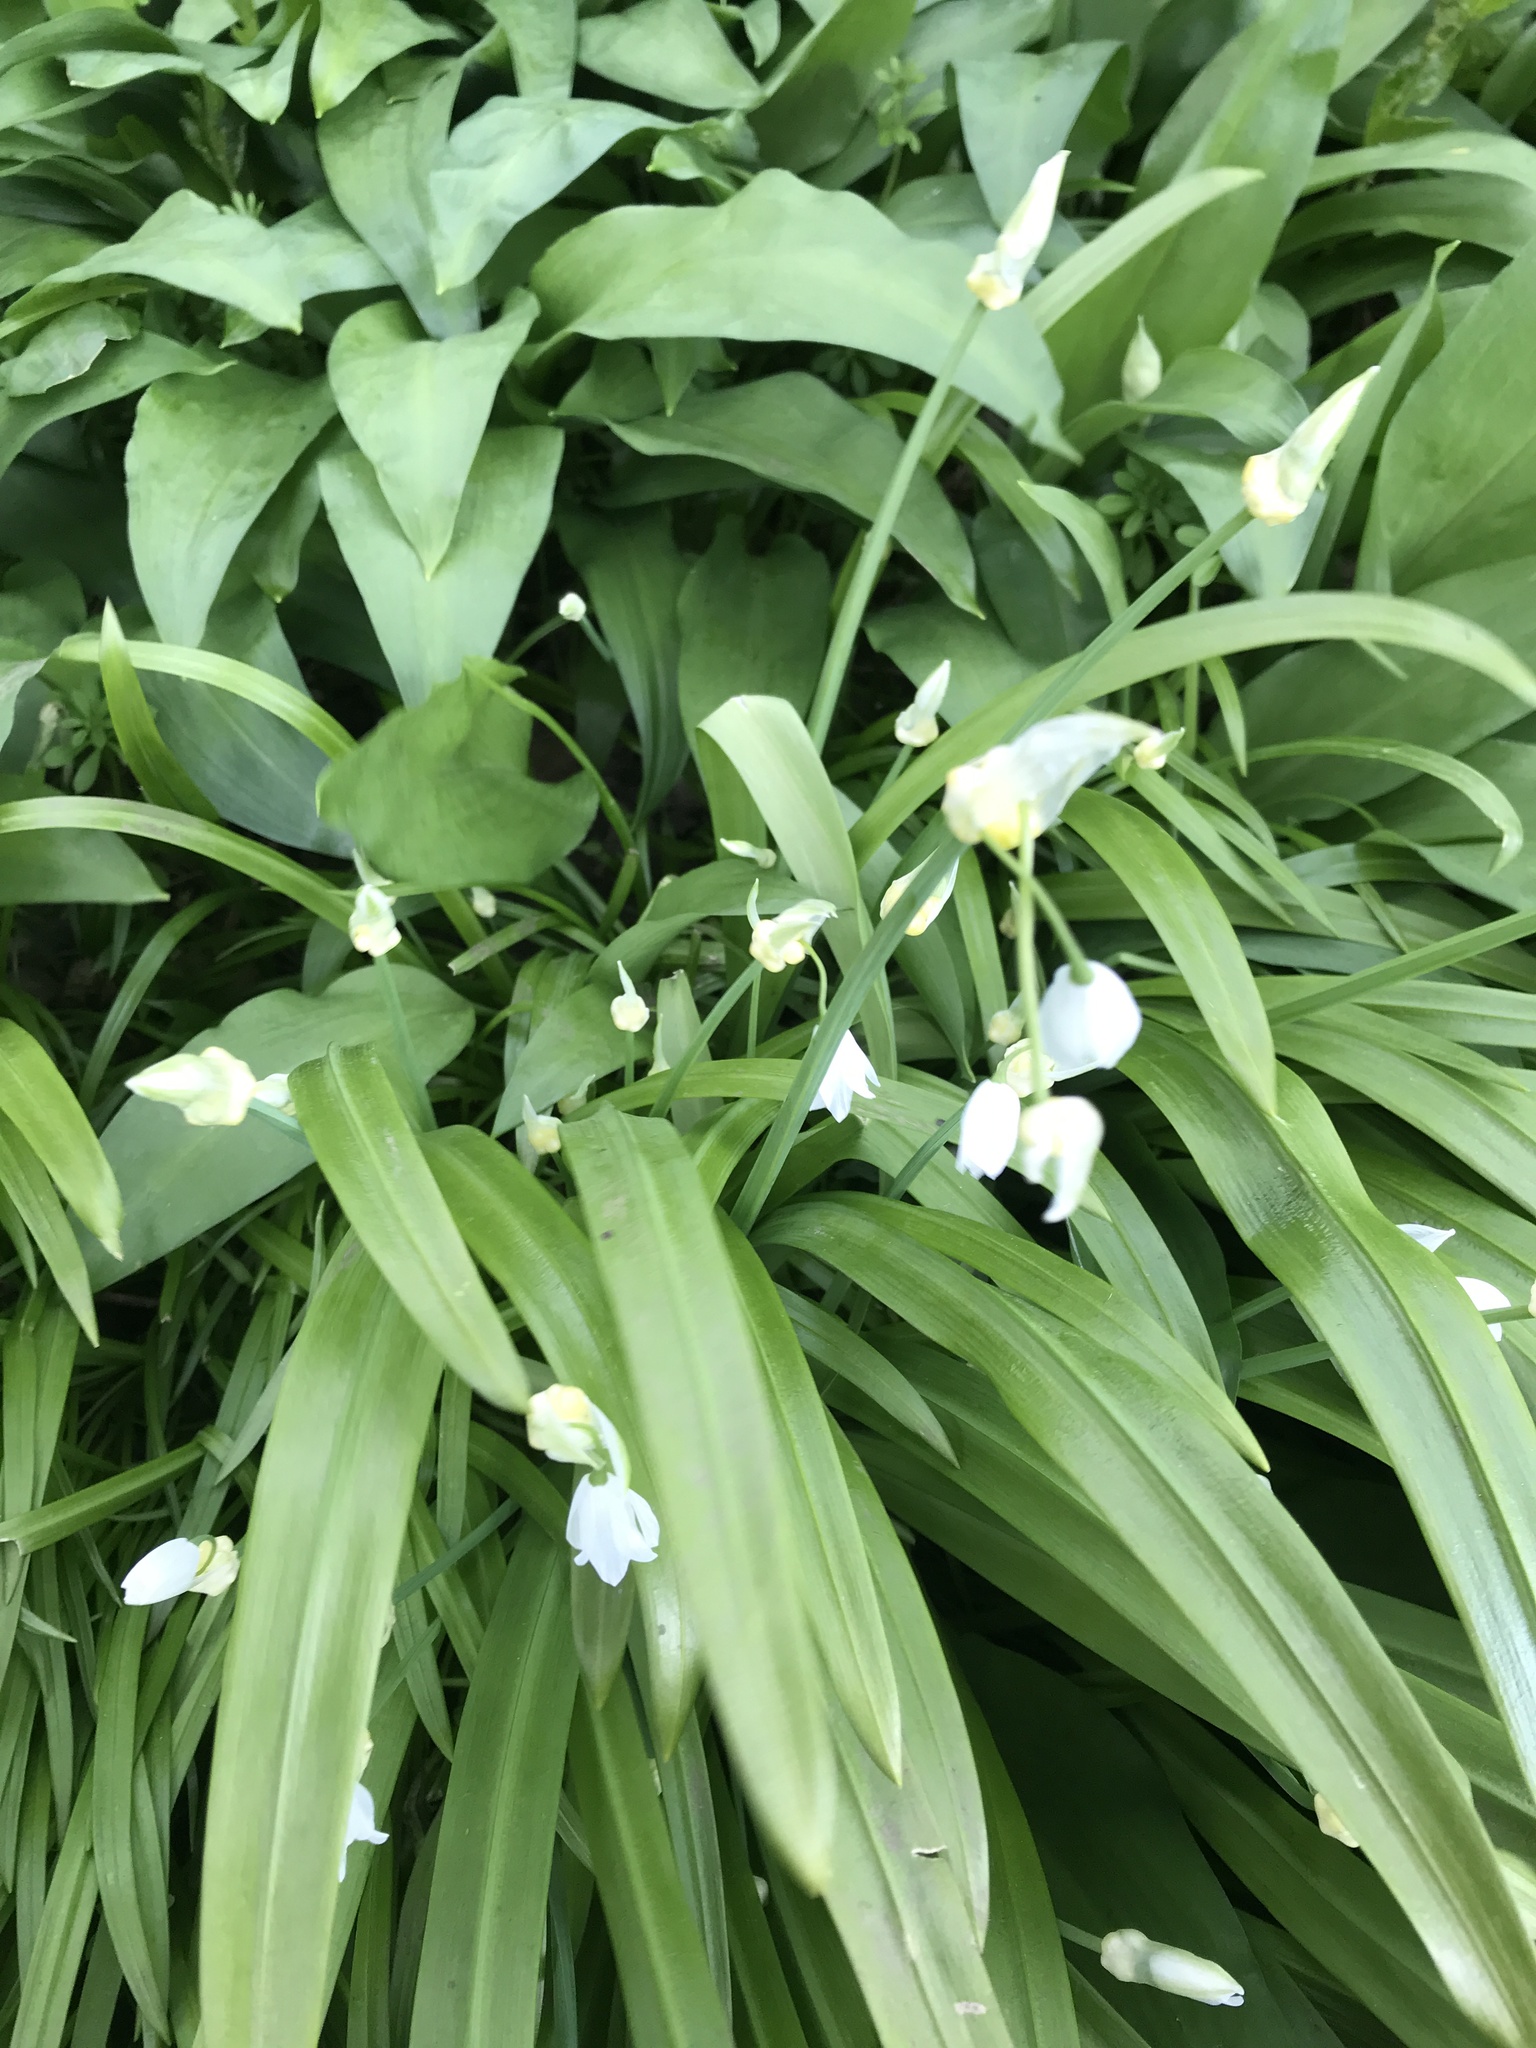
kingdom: Plantae
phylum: Tracheophyta
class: Liliopsida
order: Asparagales
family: Amaryllidaceae
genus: Allium
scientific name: Allium paradoxum
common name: Few-flowered garlic
